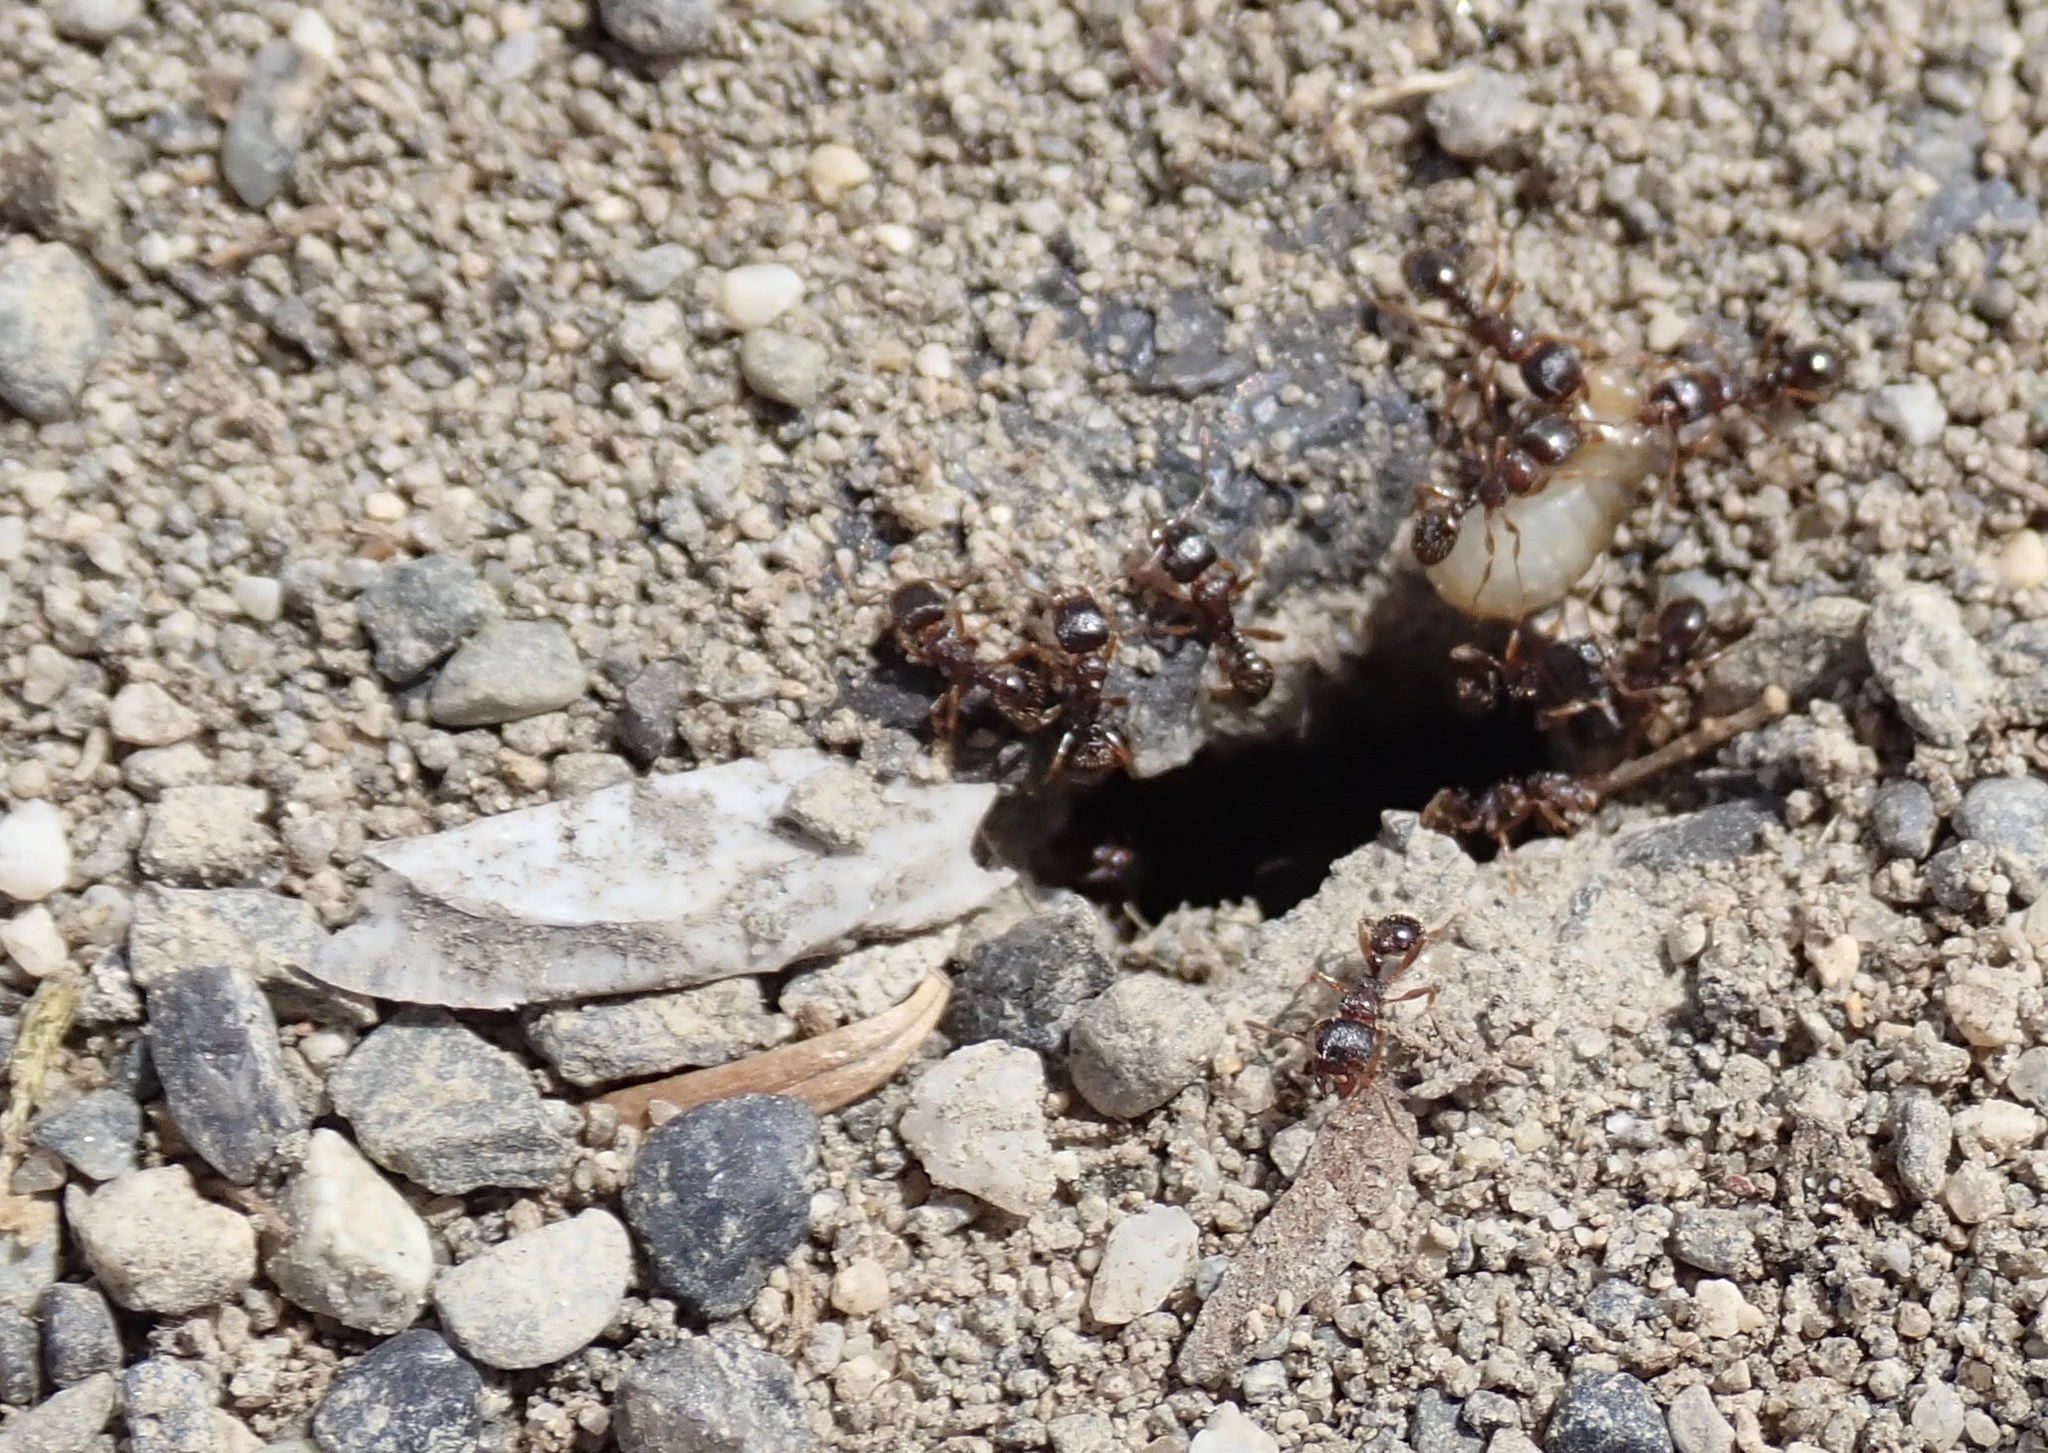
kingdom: Animalia
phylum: Arthropoda
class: Insecta
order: Hymenoptera
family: Formicidae
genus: Tetramorium
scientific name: Tetramorium immigrans
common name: Pavement ant
